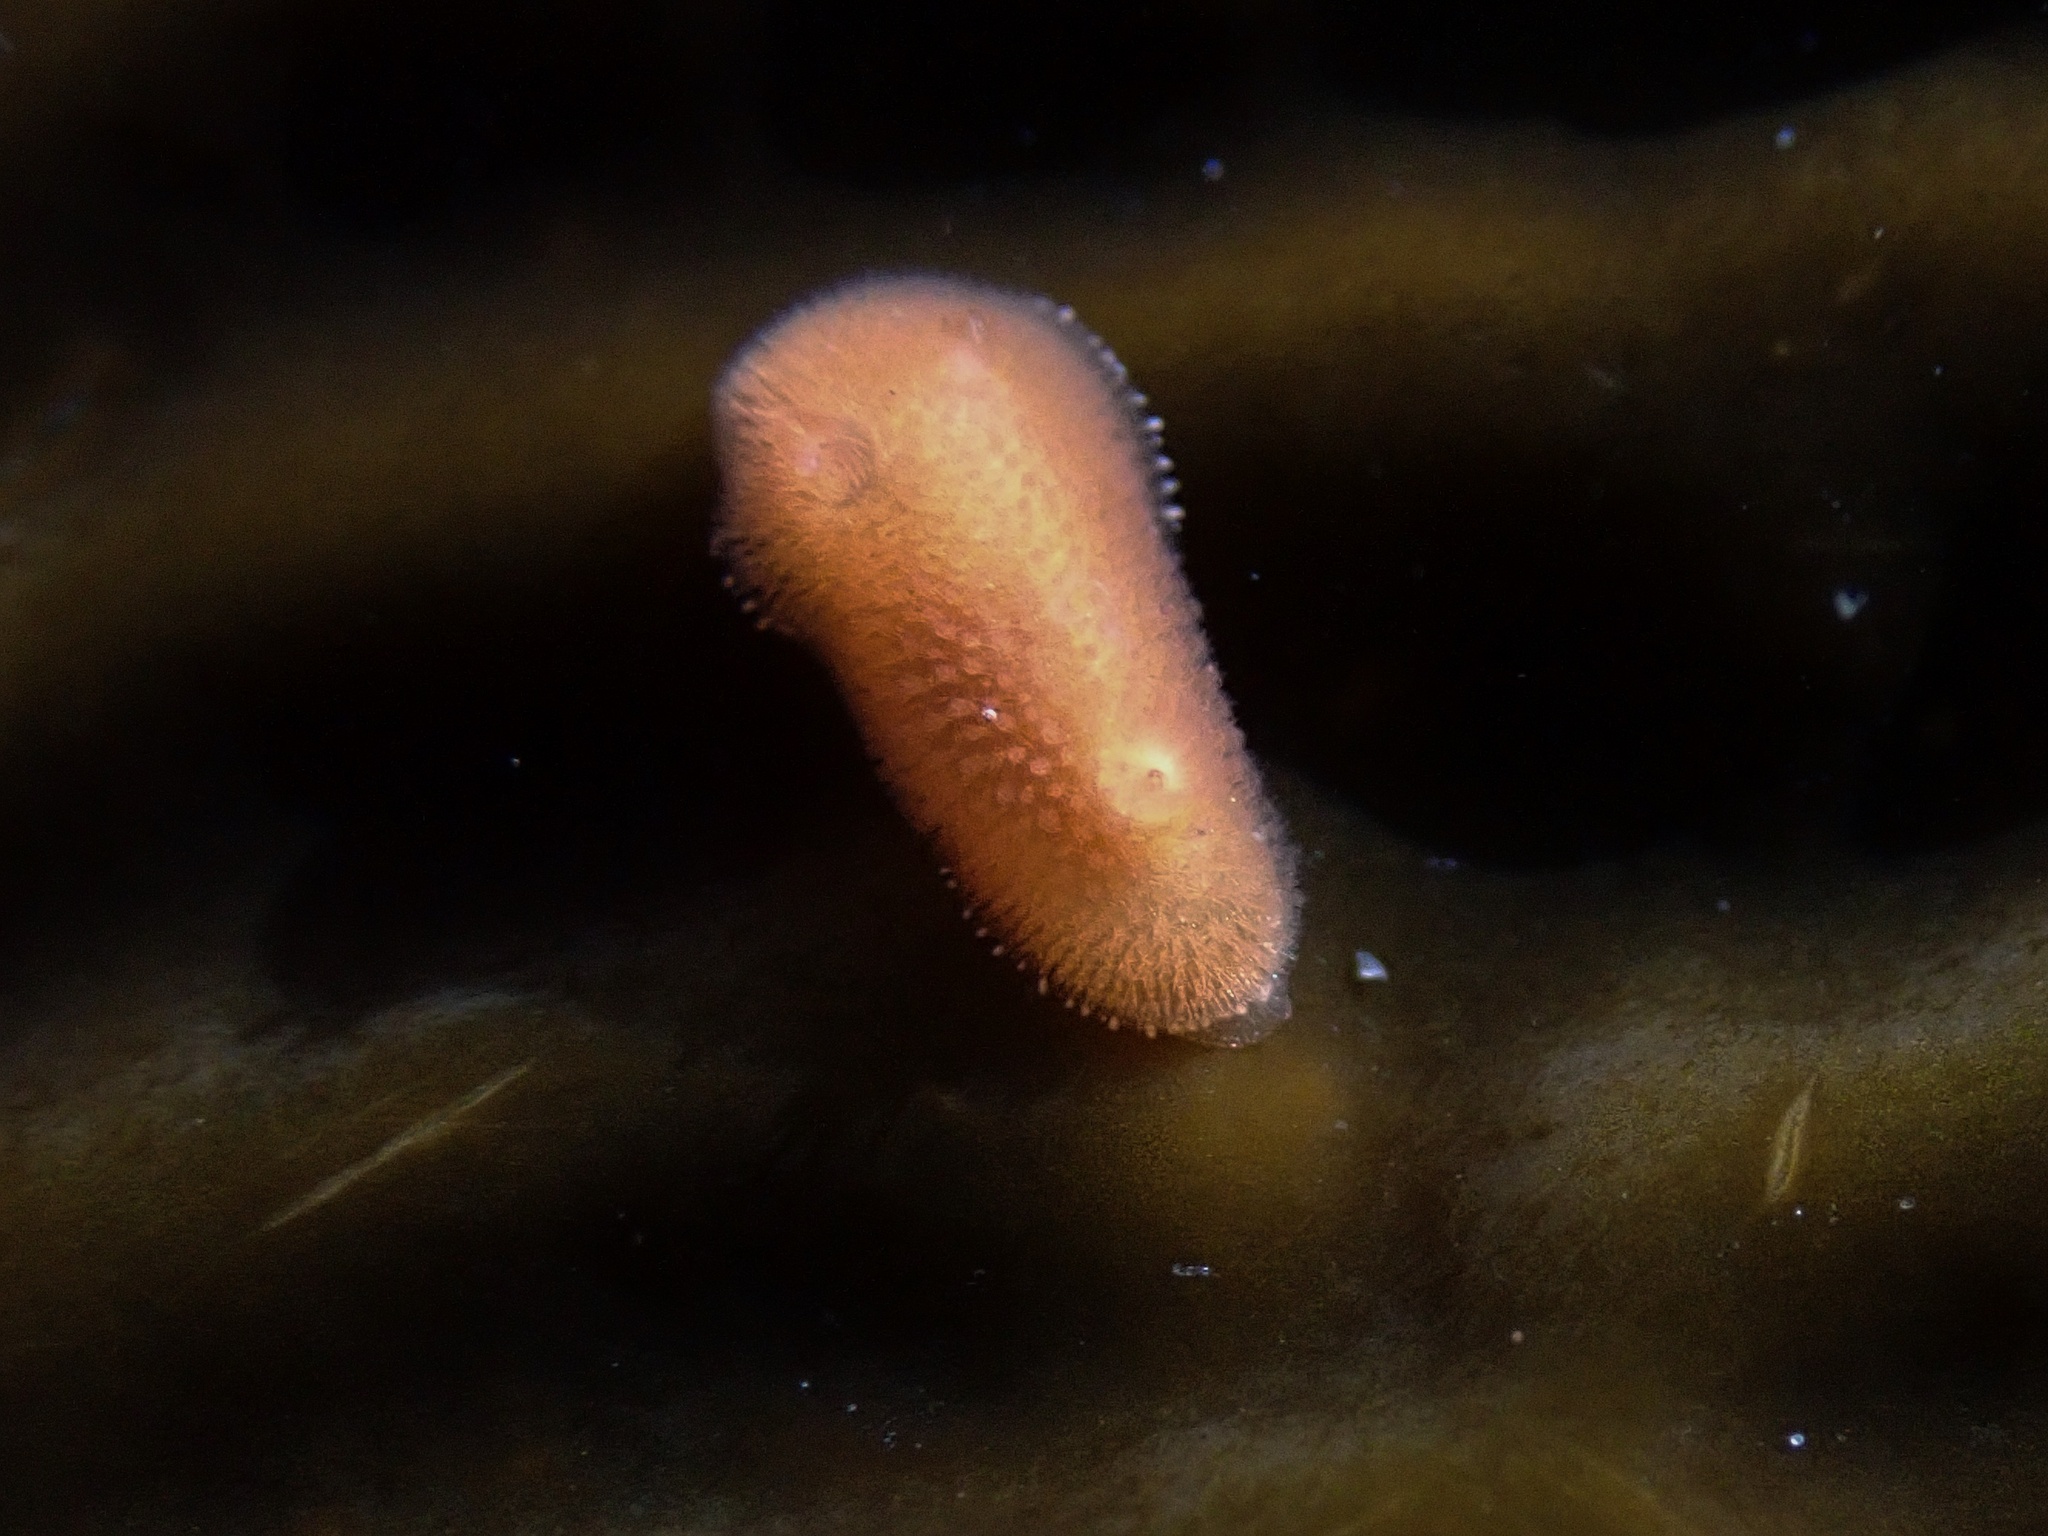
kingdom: Animalia
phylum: Mollusca
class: Gastropoda
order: Nudibranchia
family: Discodorididae
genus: Rostanga
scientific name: Rostanga pulchra
